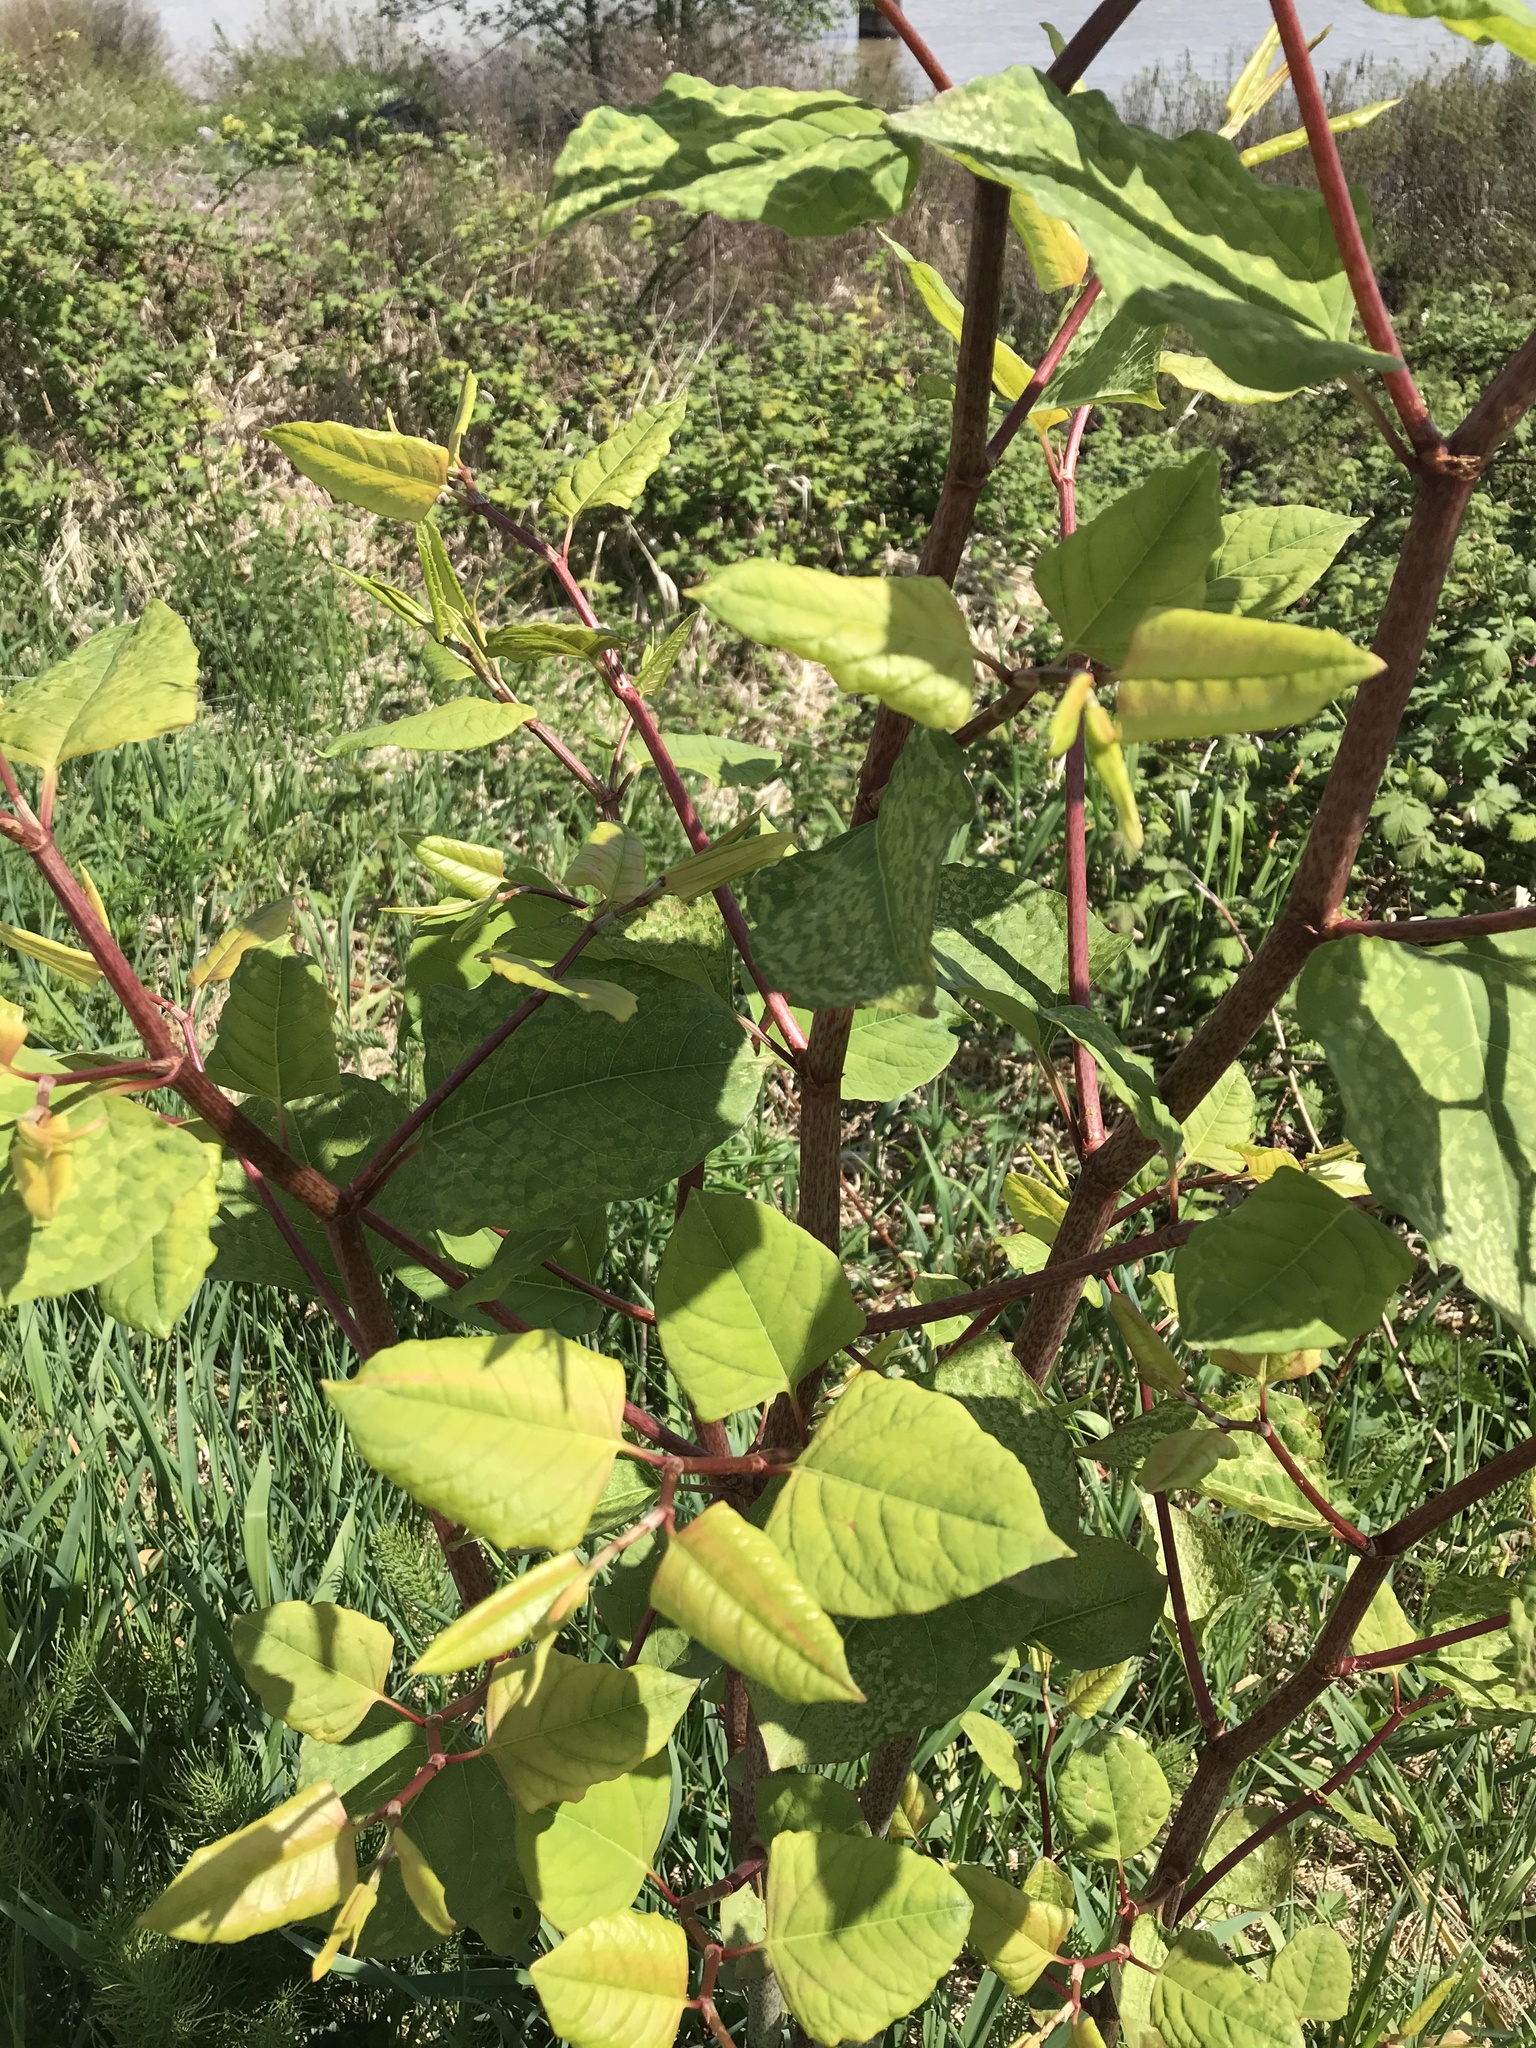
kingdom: Plantae
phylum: Tracheophyta
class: Magnoliopsida
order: Caryophyllales
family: Polygonaceae
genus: Reynoutria
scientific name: Reynoutria japonica
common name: Japanese knotweed
